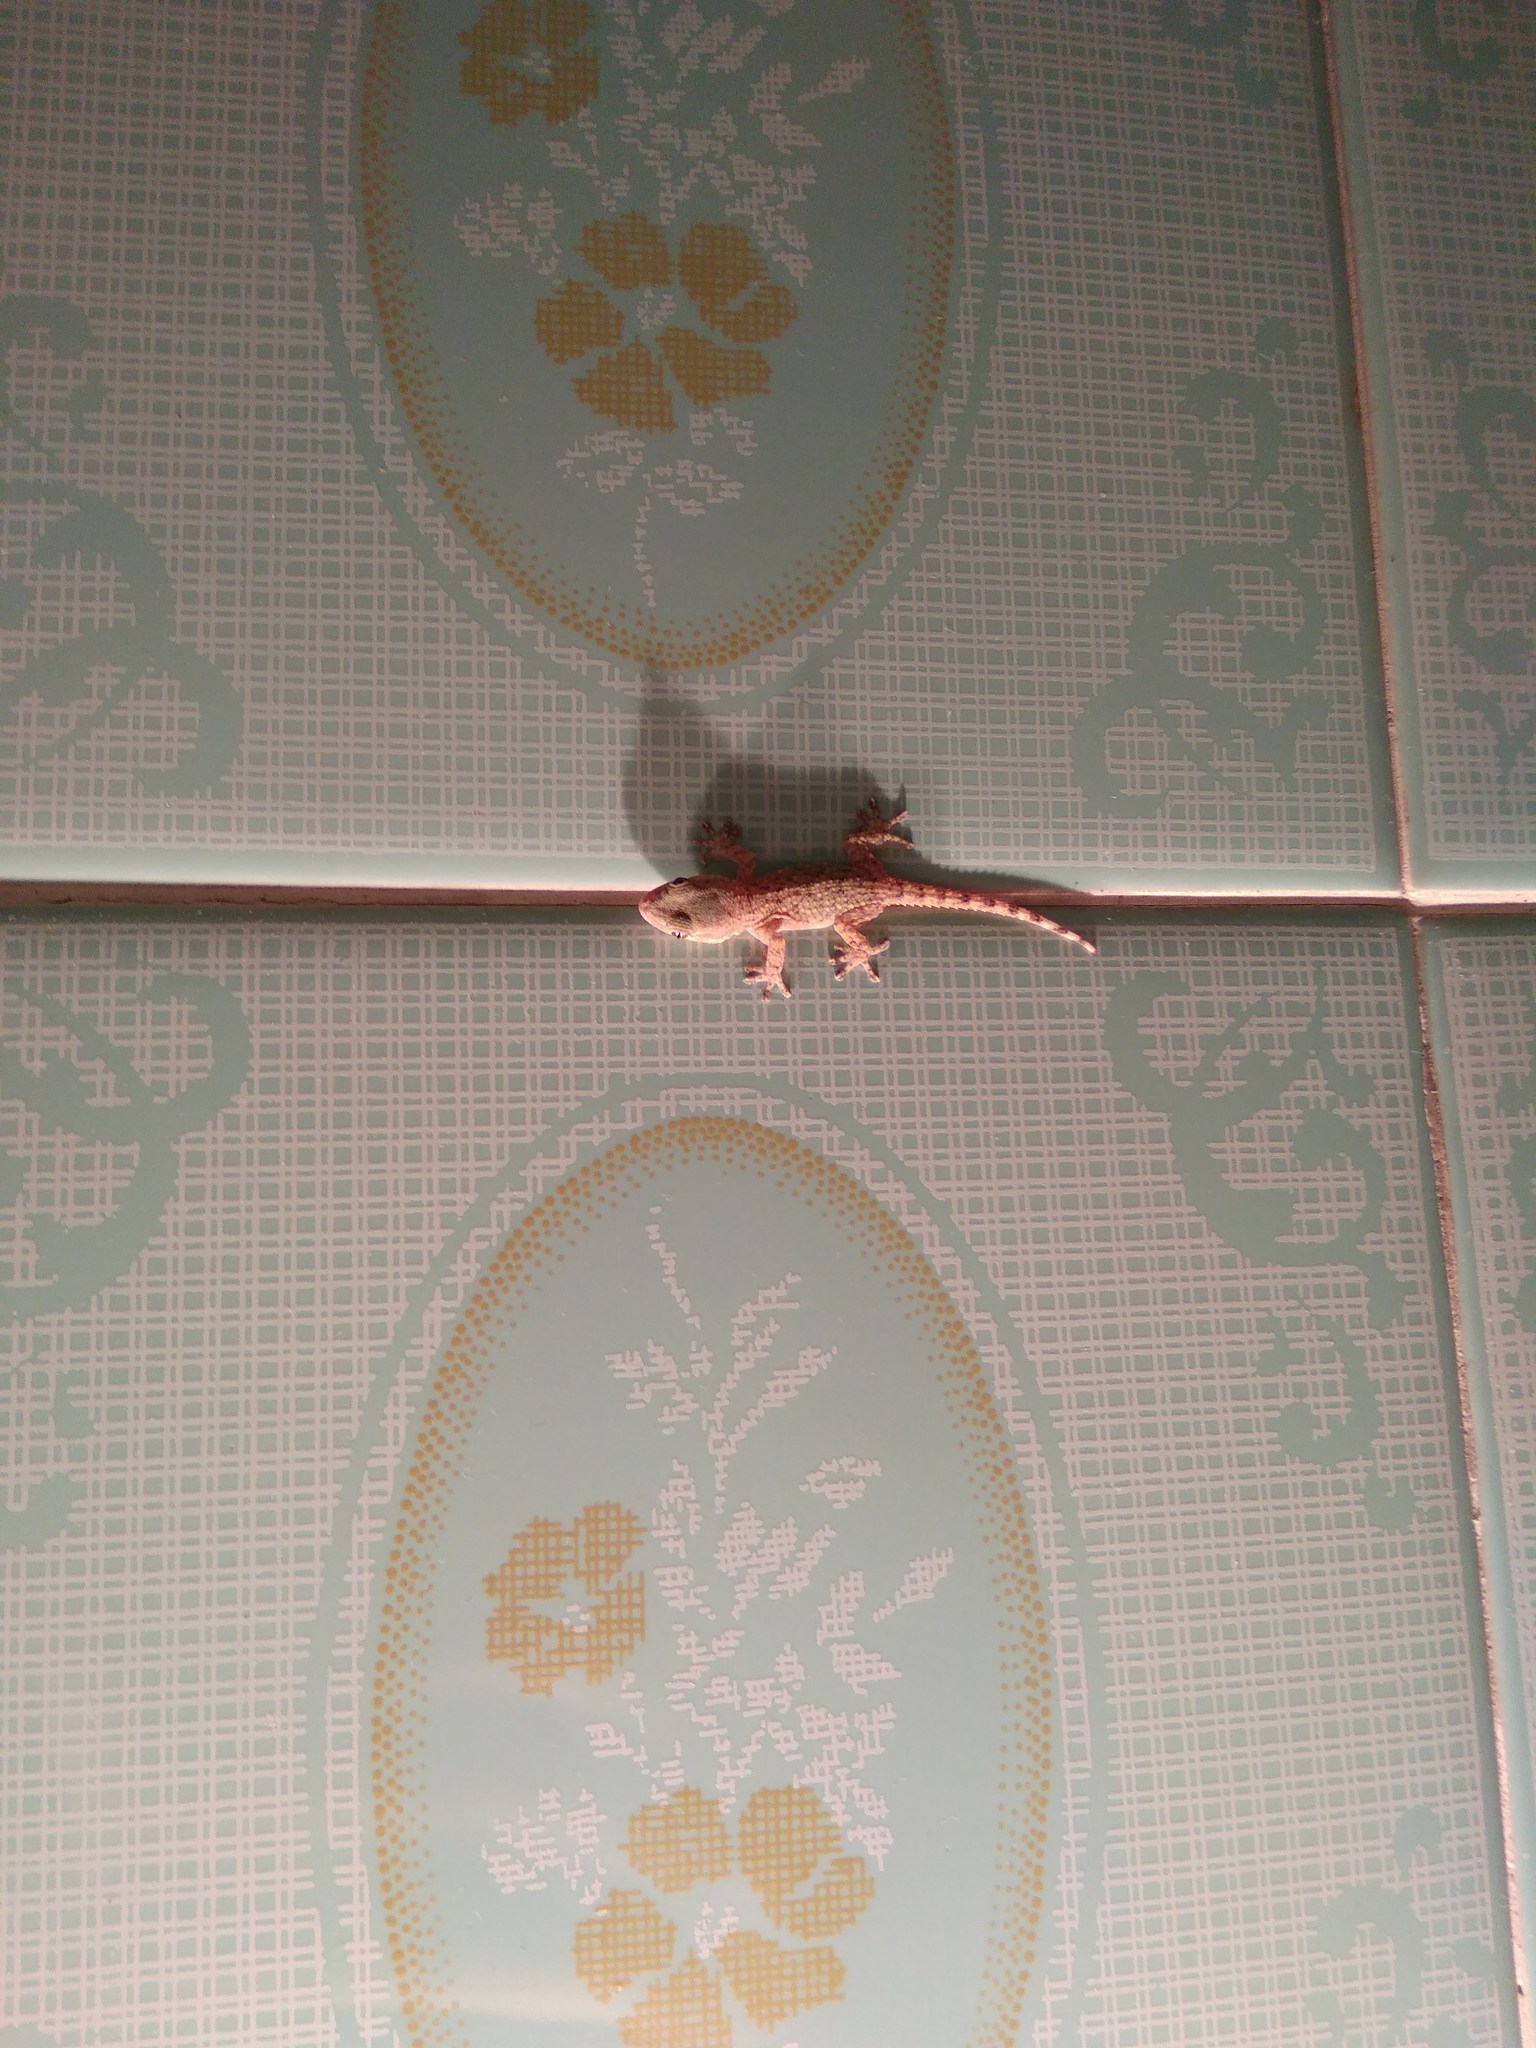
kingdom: Animalia
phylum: Chordata
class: Squamata
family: Phyllodactylidae
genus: Tarentola
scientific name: Tarentola mauritanica
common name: Moorish gecko
